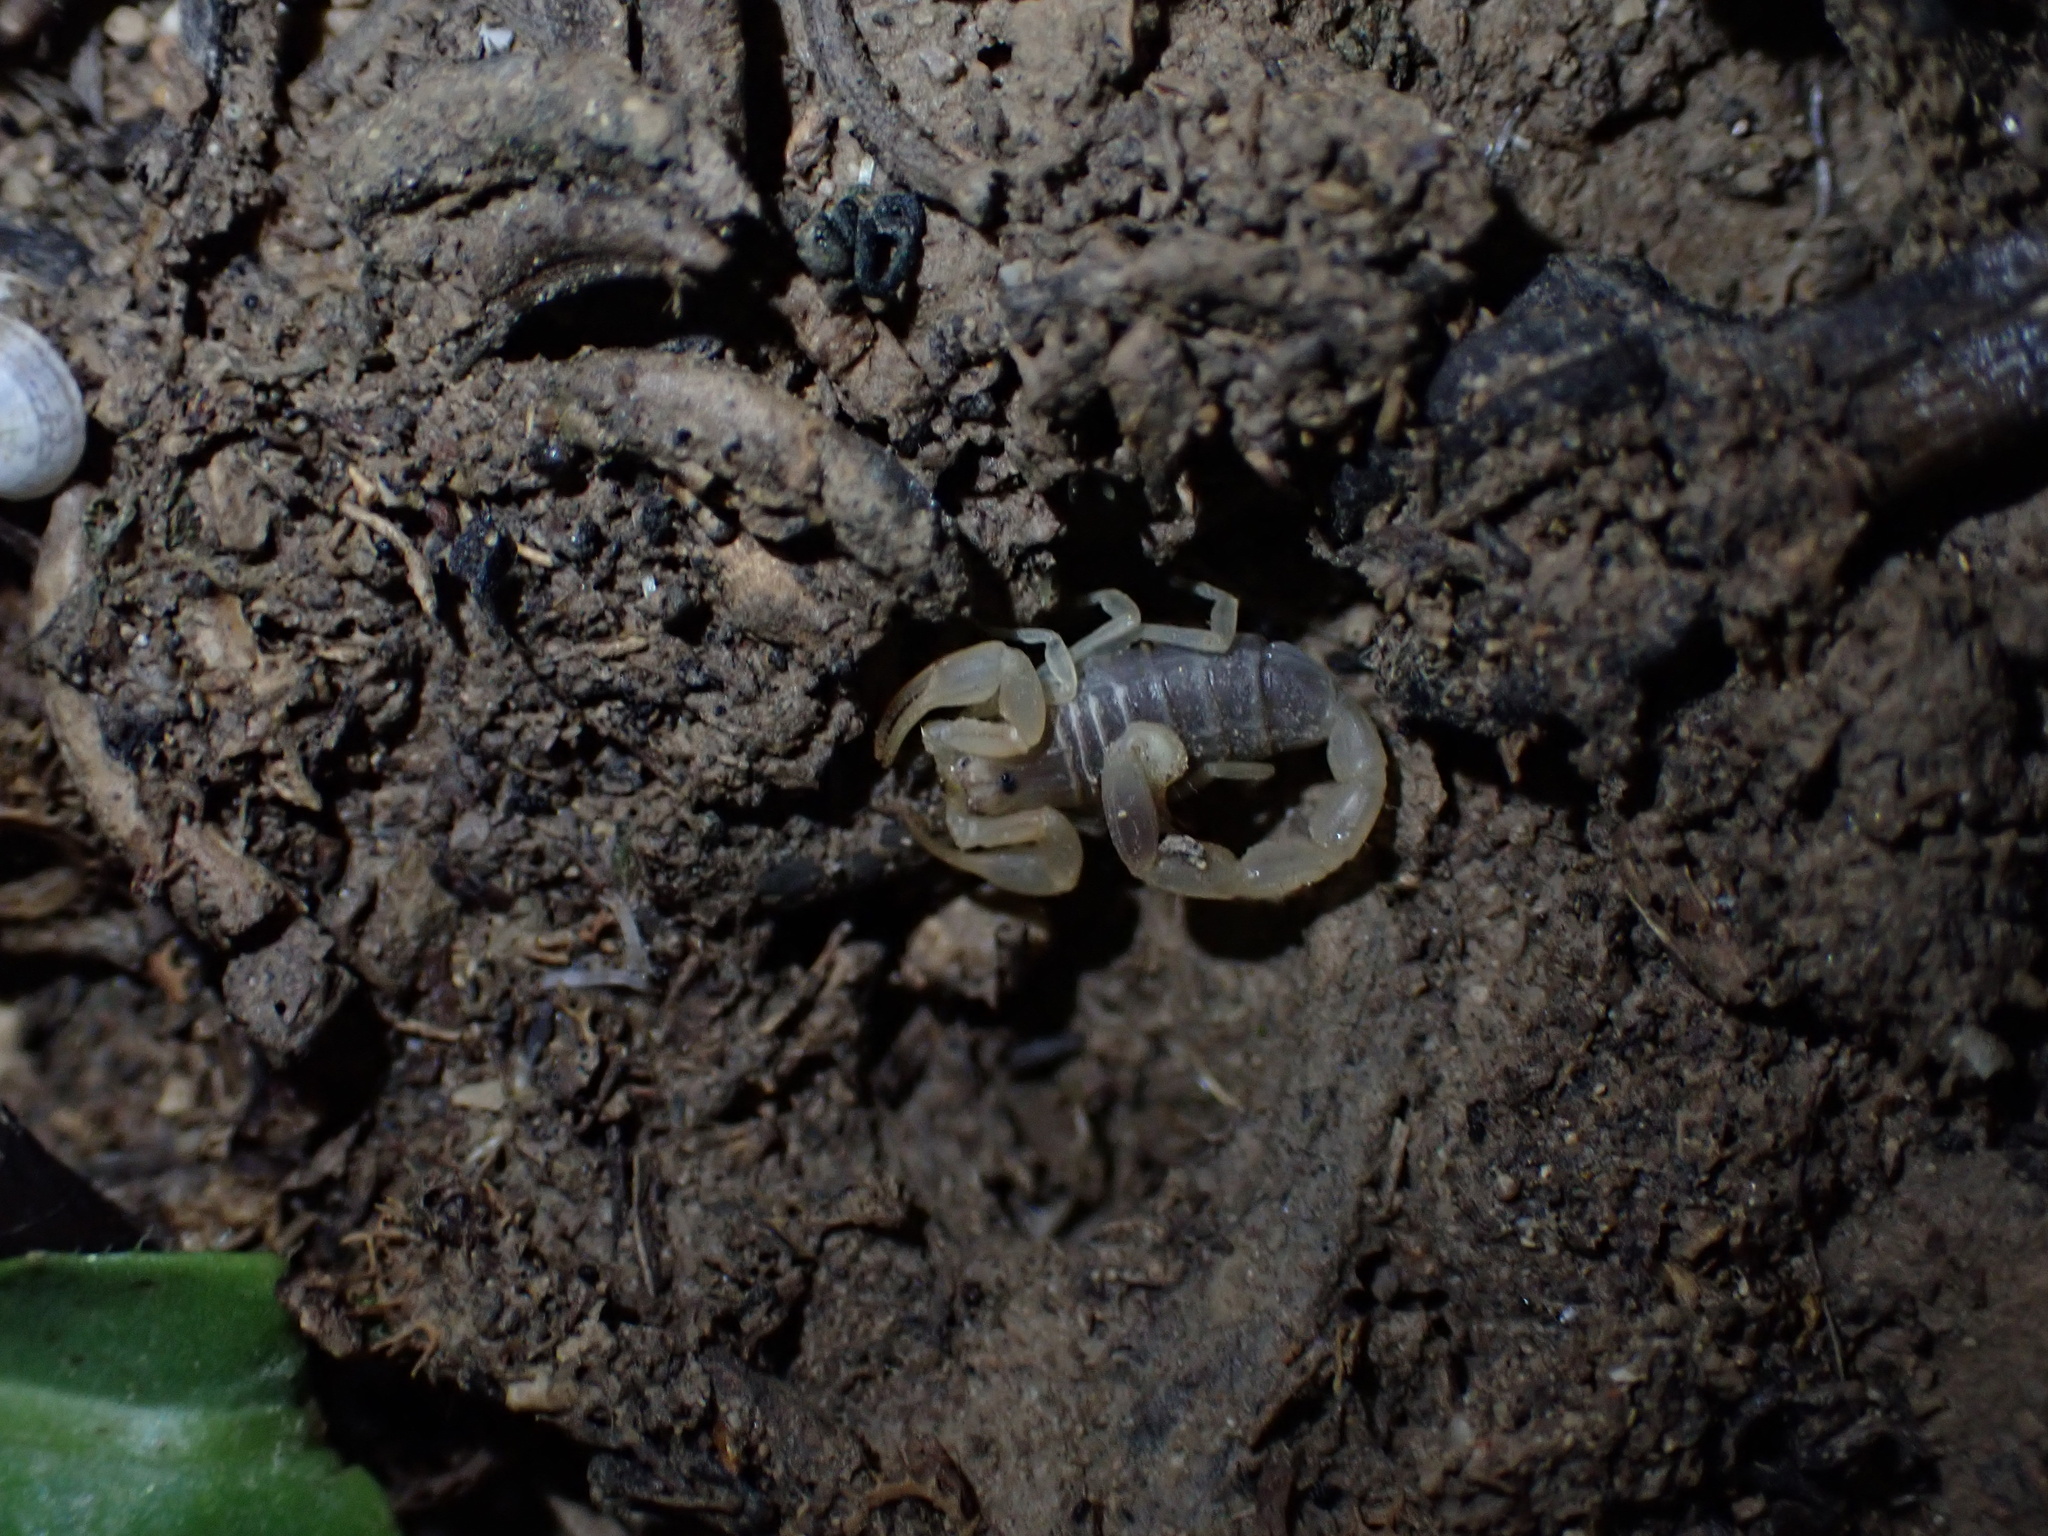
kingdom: Animalia
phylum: Arthropoda
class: Arachnida
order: Scorpiones
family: Buthidae
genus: Razianus
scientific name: Razianus zarudnyi
